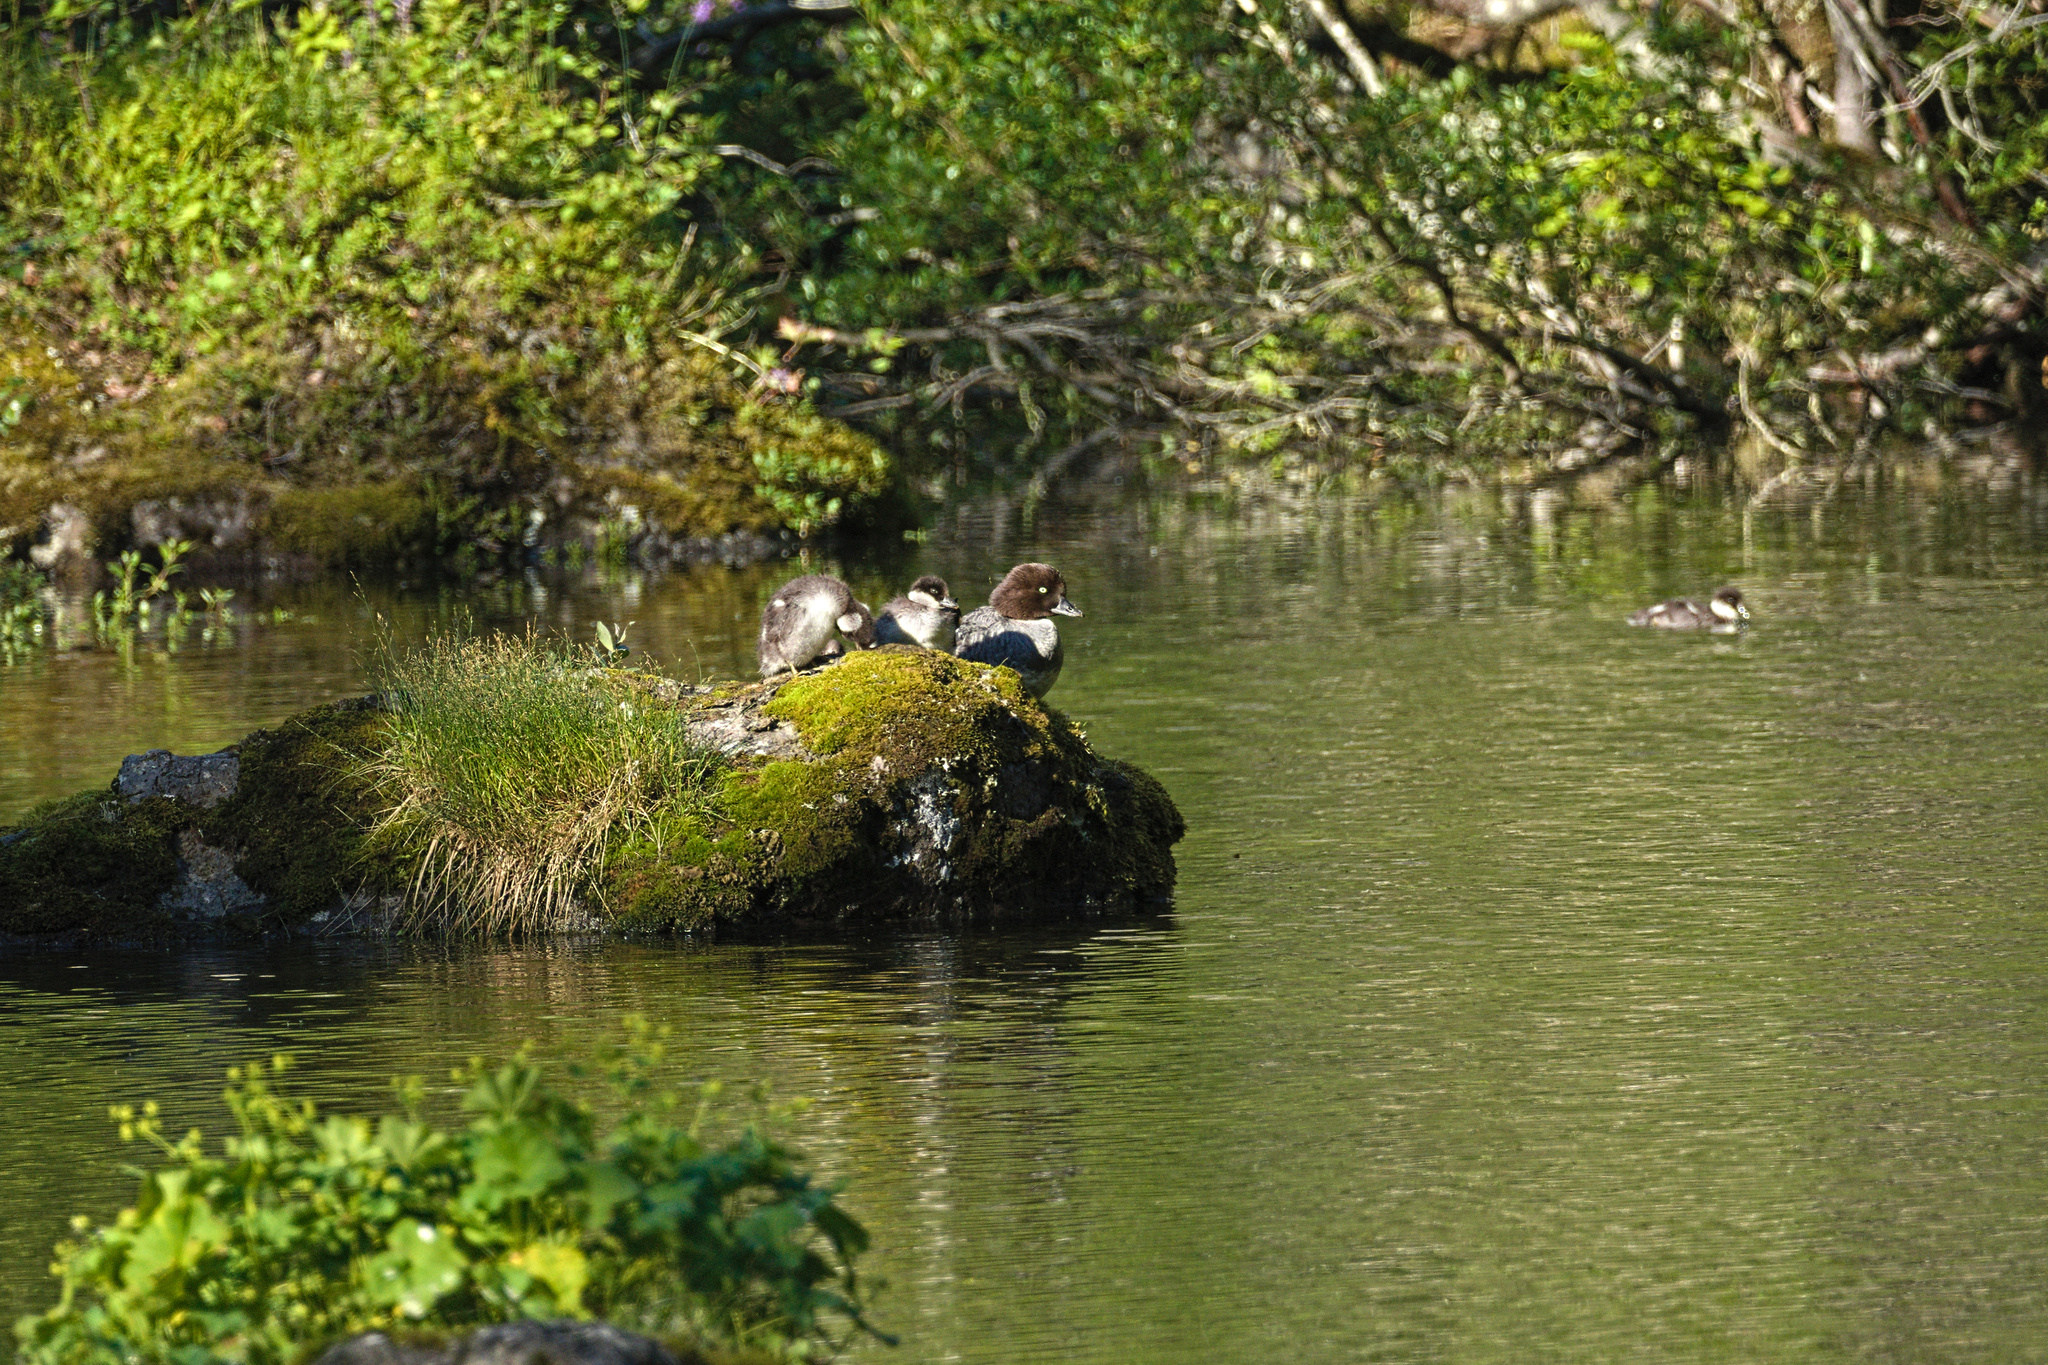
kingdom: Animalia
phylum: Chordata
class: Aves
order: Anseriformes
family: Anatidae
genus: Bucephala
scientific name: Bucephala islandica
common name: Barrow's goldeneye
